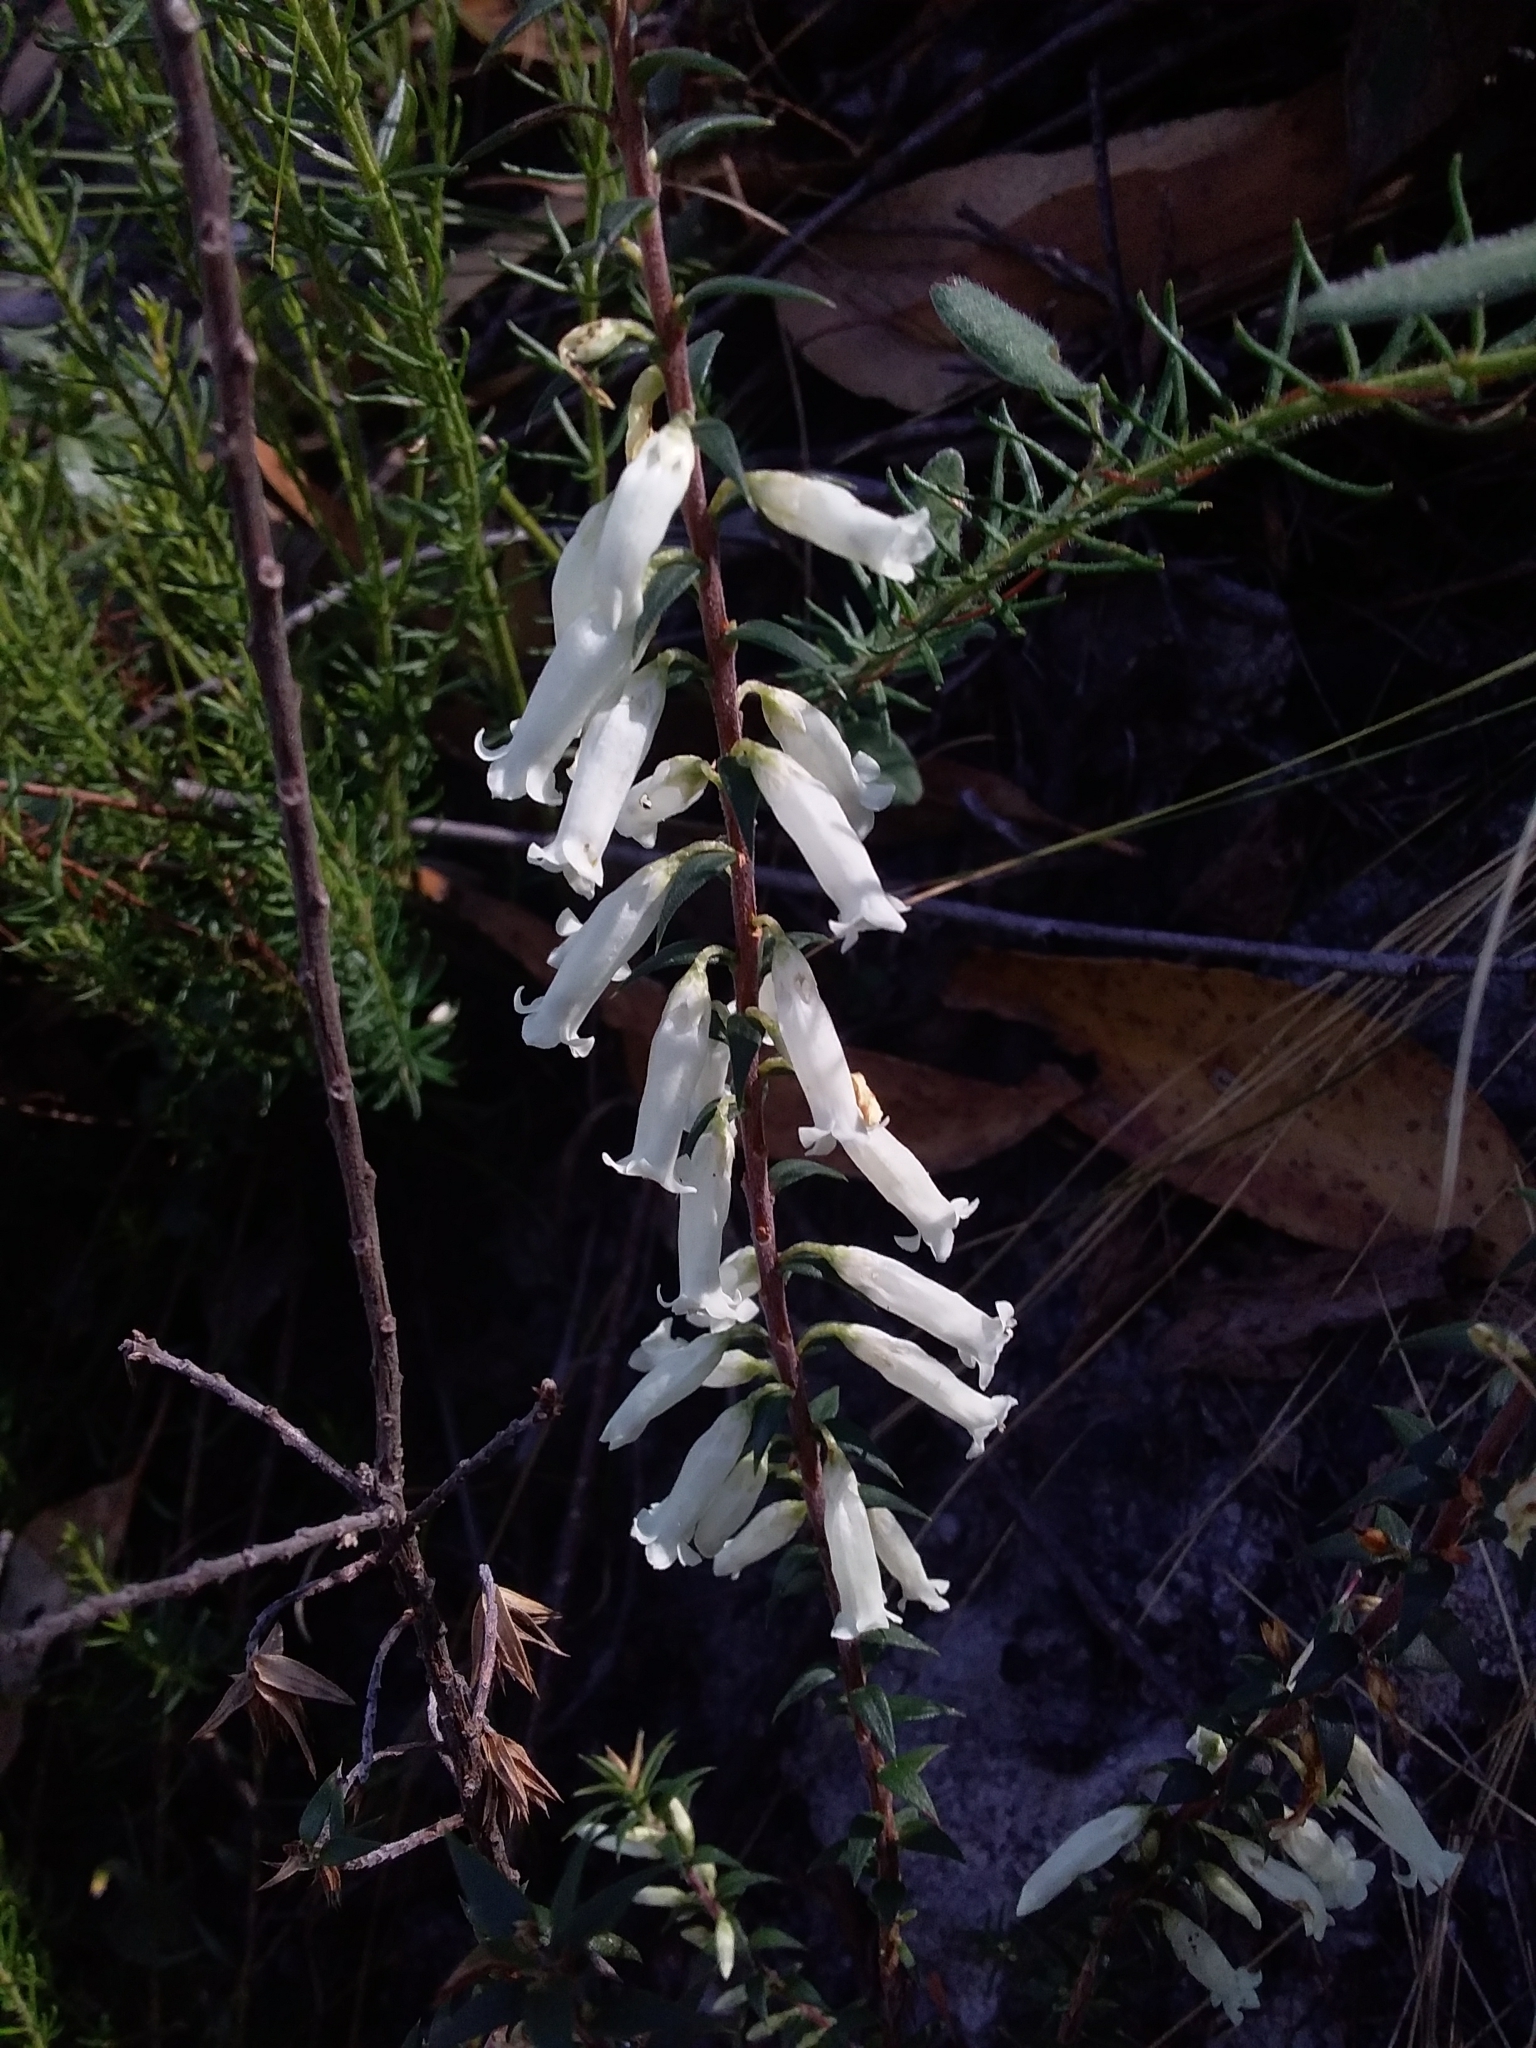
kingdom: Plantae
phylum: Tracheophyta
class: Magnoliopsida
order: Ericales
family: Ericaceae
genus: Epacris
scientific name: Epacris impressa
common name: Common-heath
